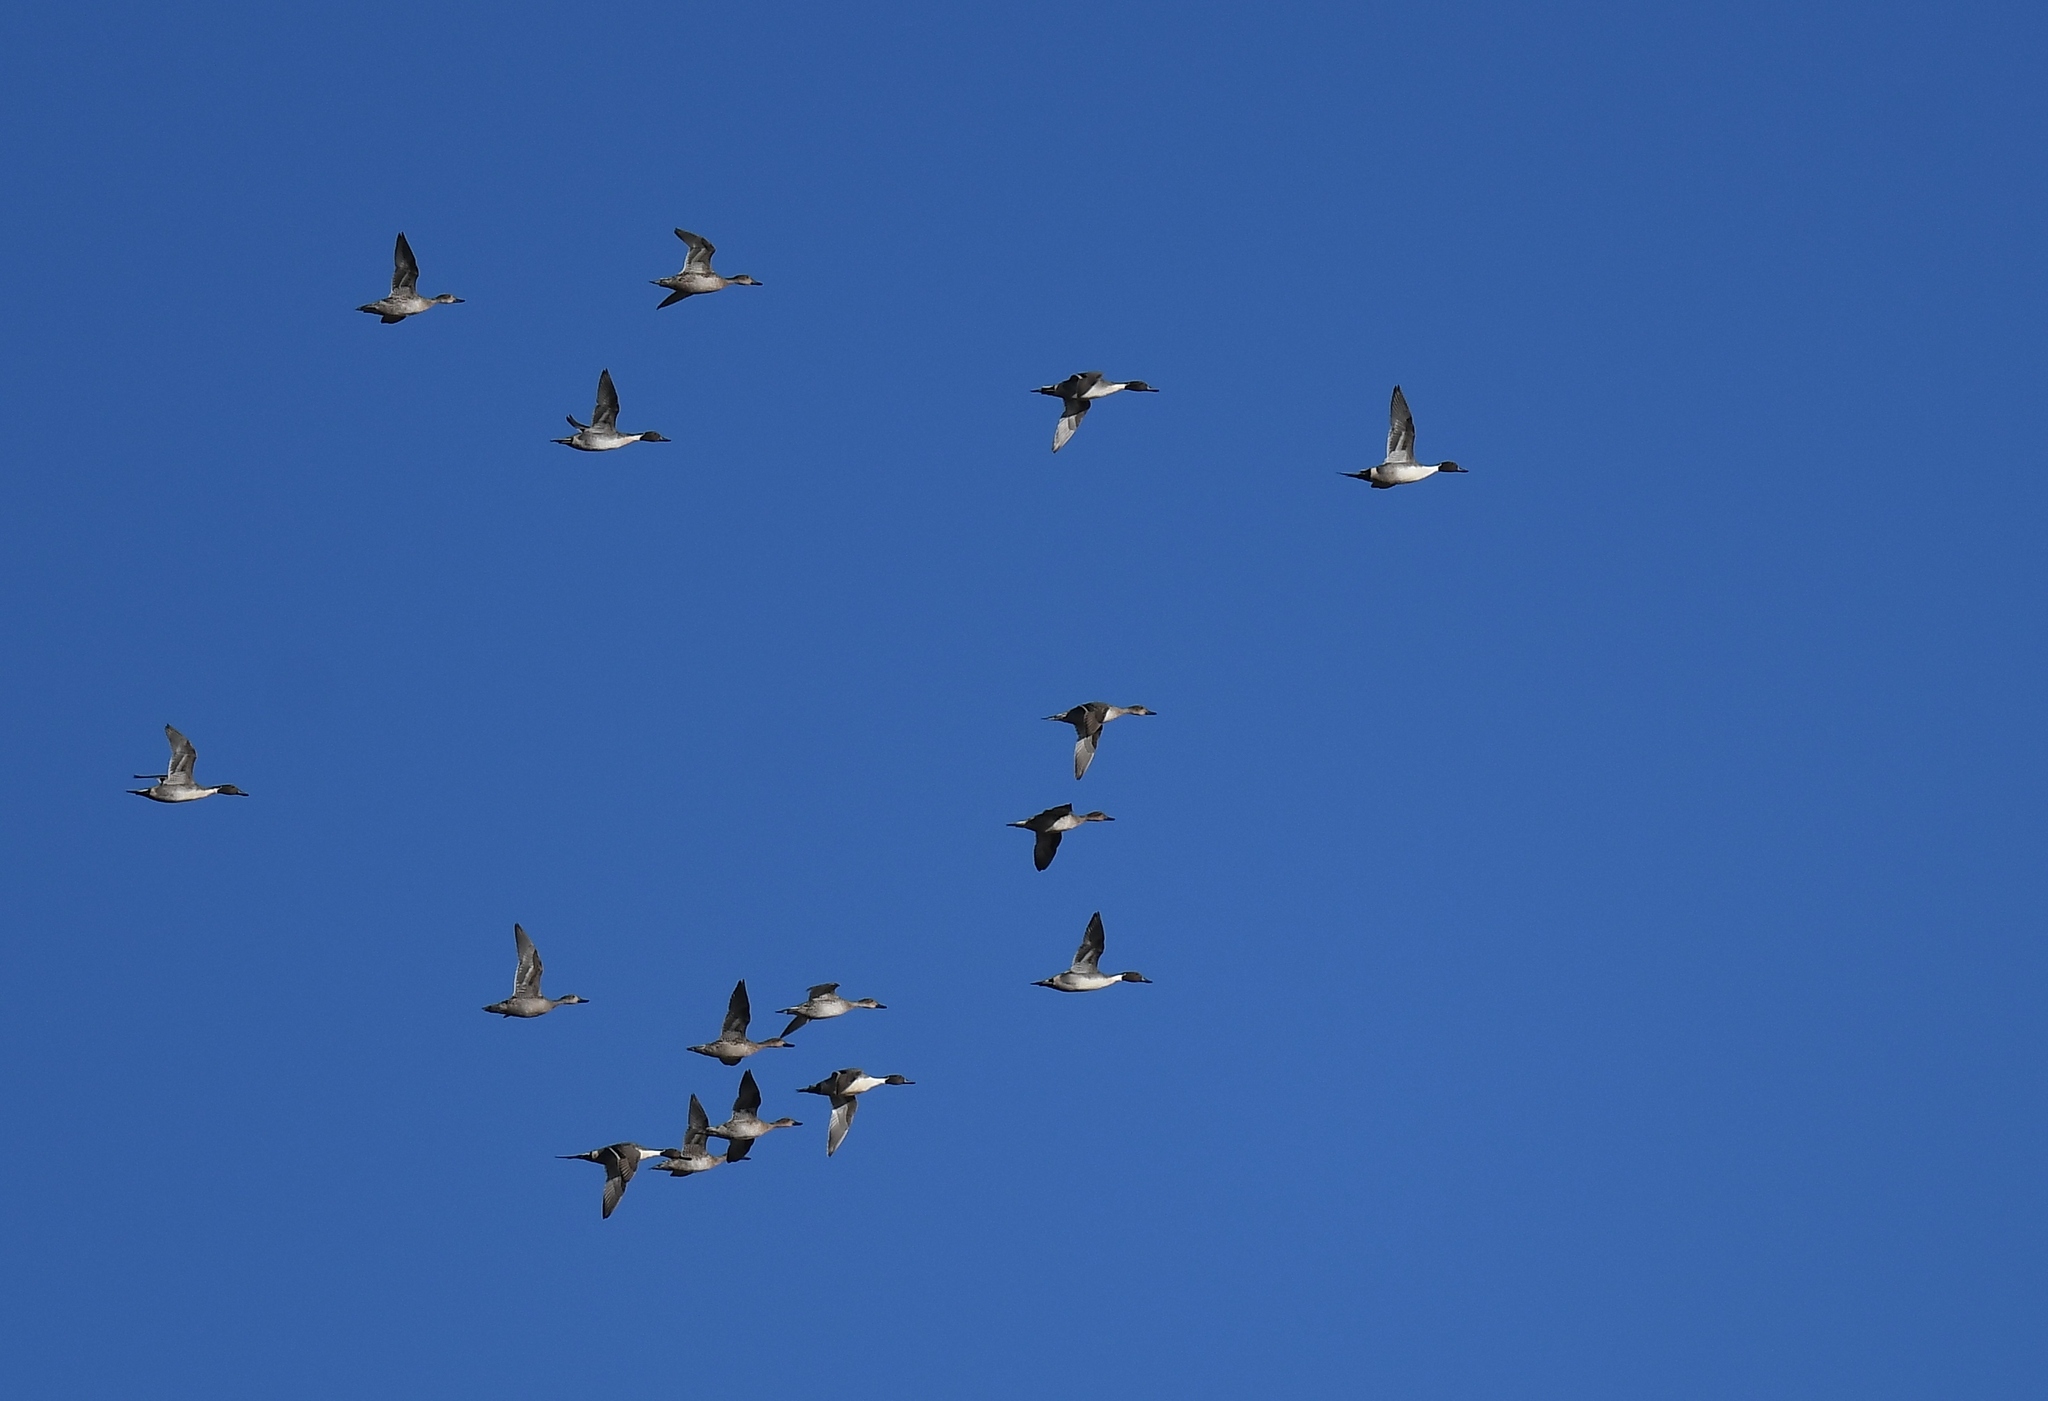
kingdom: Animalia
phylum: Chordata
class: Aves
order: Anseriformes
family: Anatidae
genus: Anas
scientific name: Anas acuta
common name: Northern pintail
